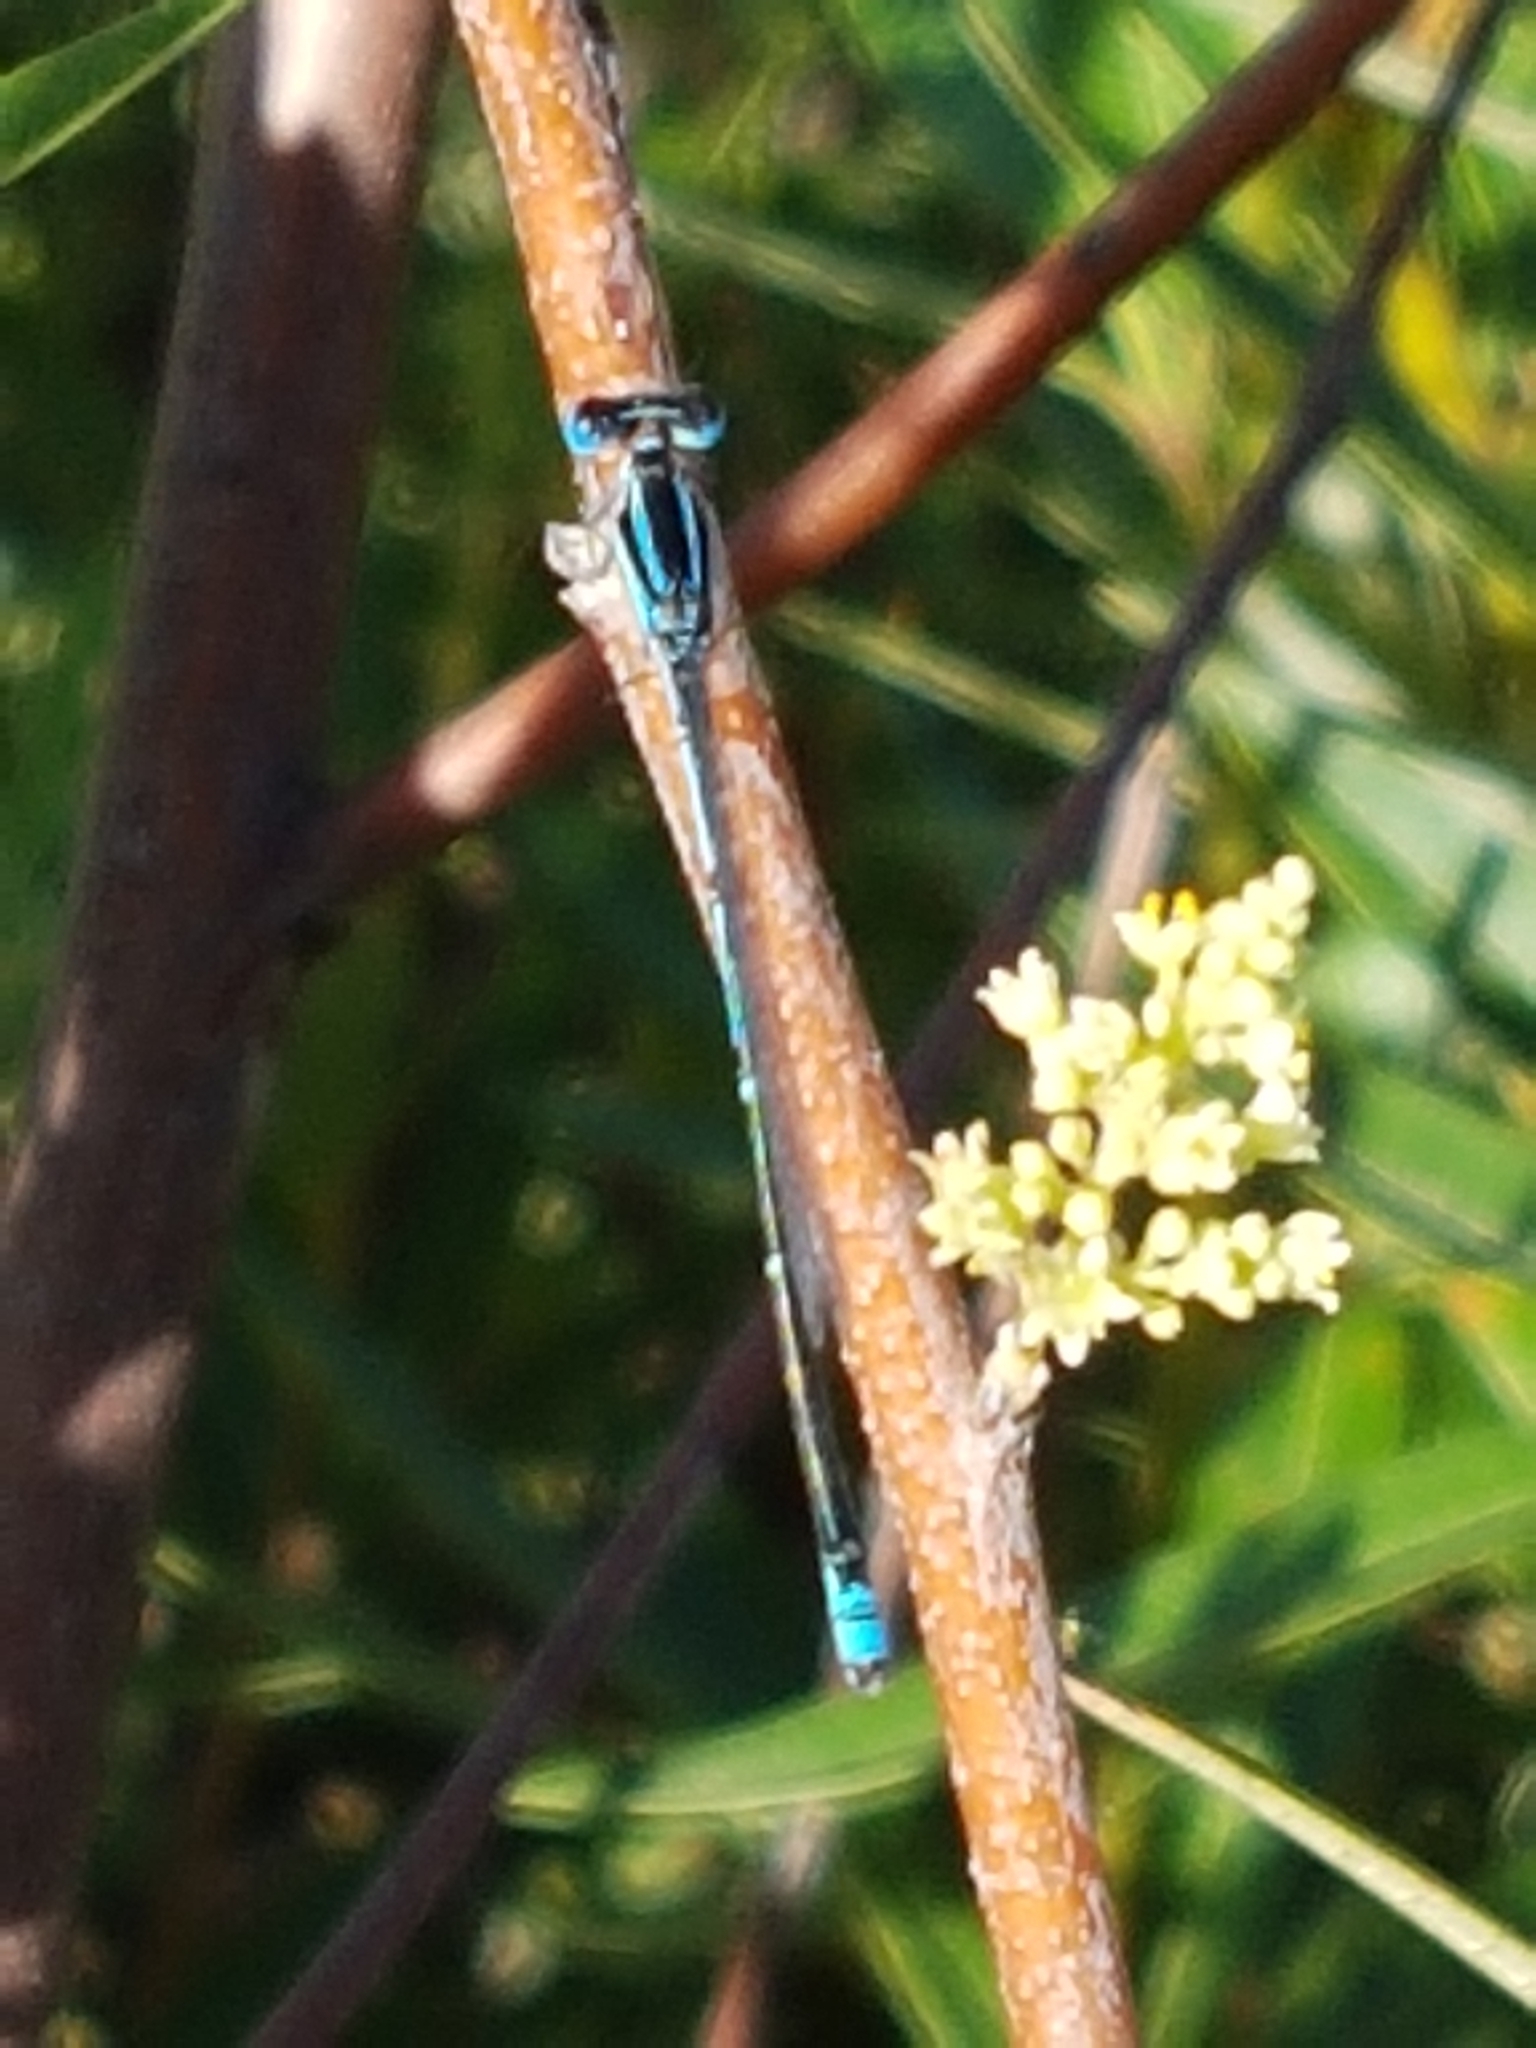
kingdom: Animalia
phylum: Arthropoda
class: Insecta
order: Odonata
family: Coenagrionidae
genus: Azuragrion
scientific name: Azuragrion nigridorsum
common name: Sailing azuret
